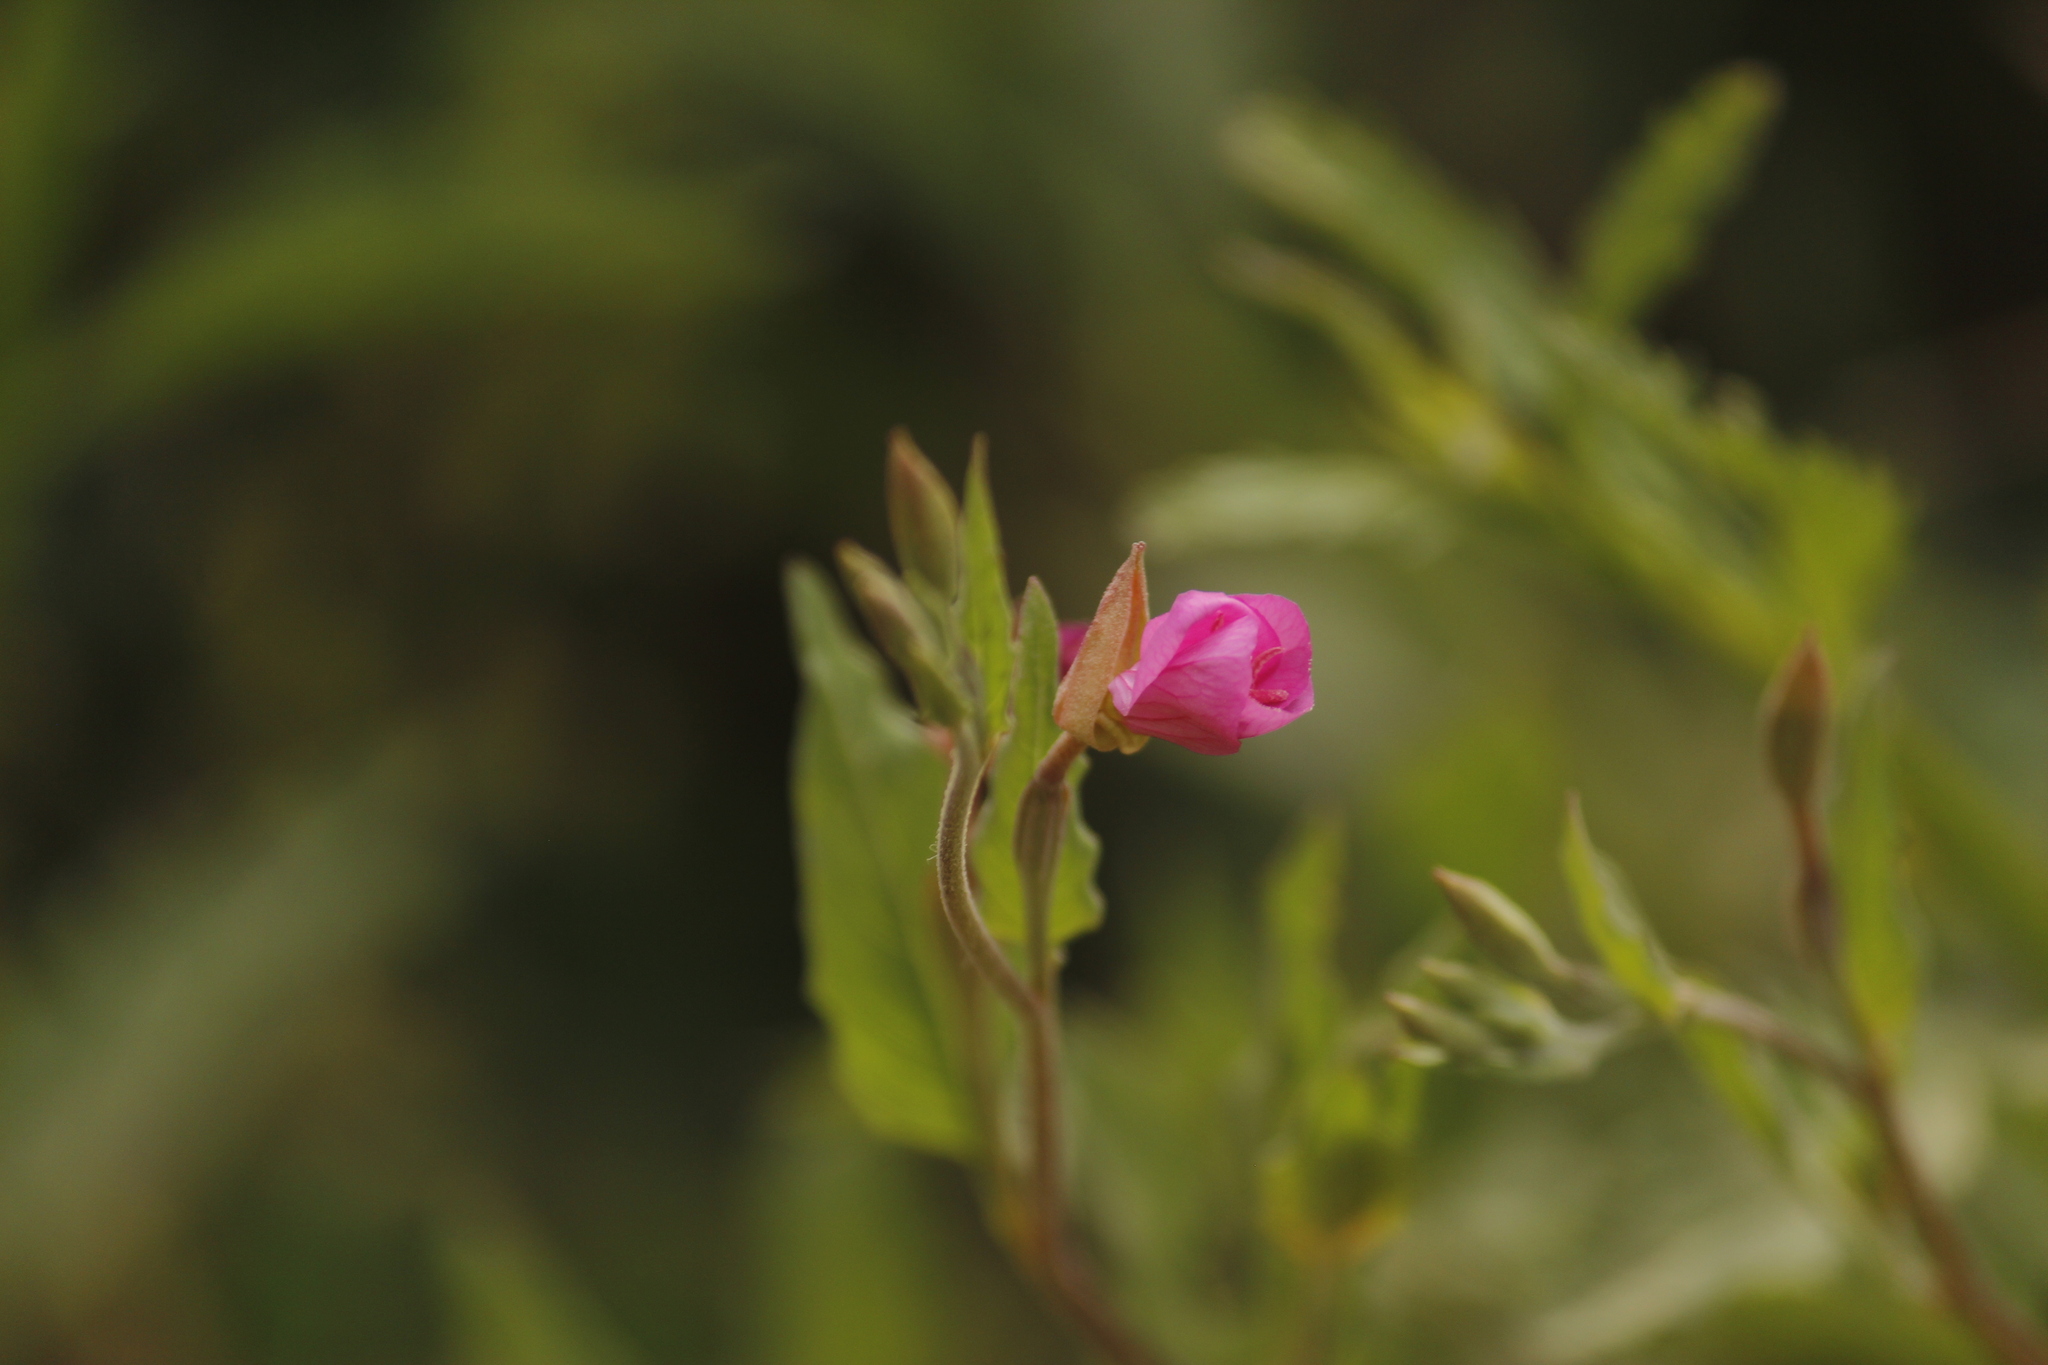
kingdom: Plantae
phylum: Tracheophyta
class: Magnoliopsida
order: Myrtales
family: Onagraceae
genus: Oenothera
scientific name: Oenothera rosea
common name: Rosy evening-primrose
